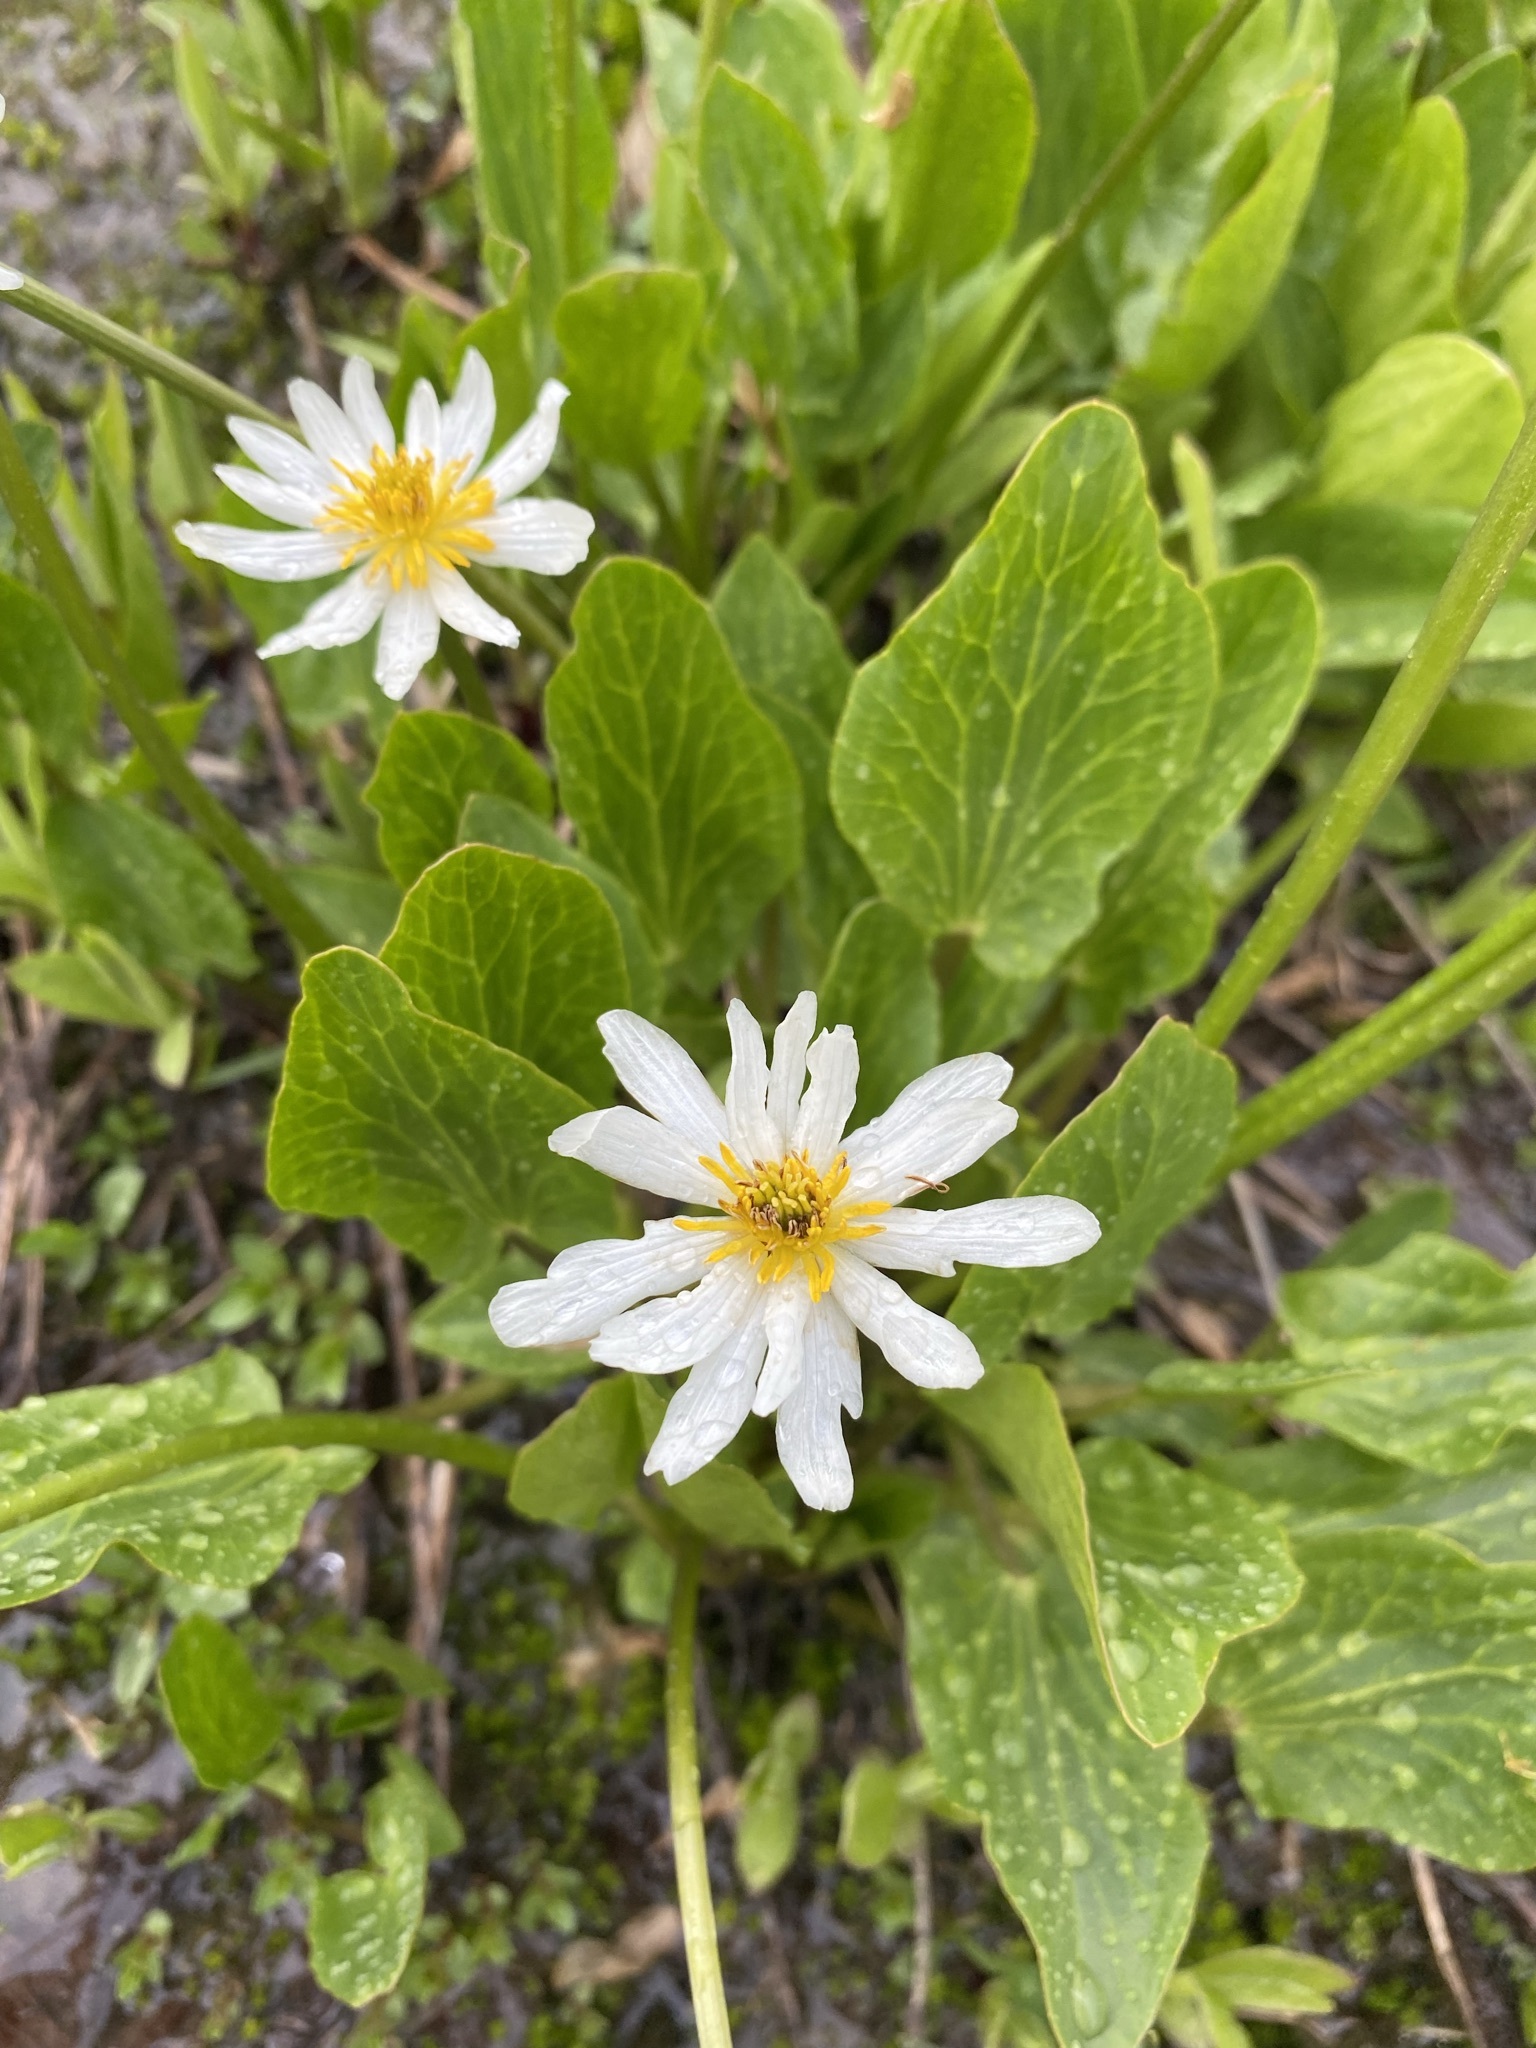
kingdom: Plantae
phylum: Tracheophyta
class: Magnoliopsida
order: Ranunculales
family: Ranunculaceae
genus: Caltha
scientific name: Caltha leptosepala
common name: Elkslip
